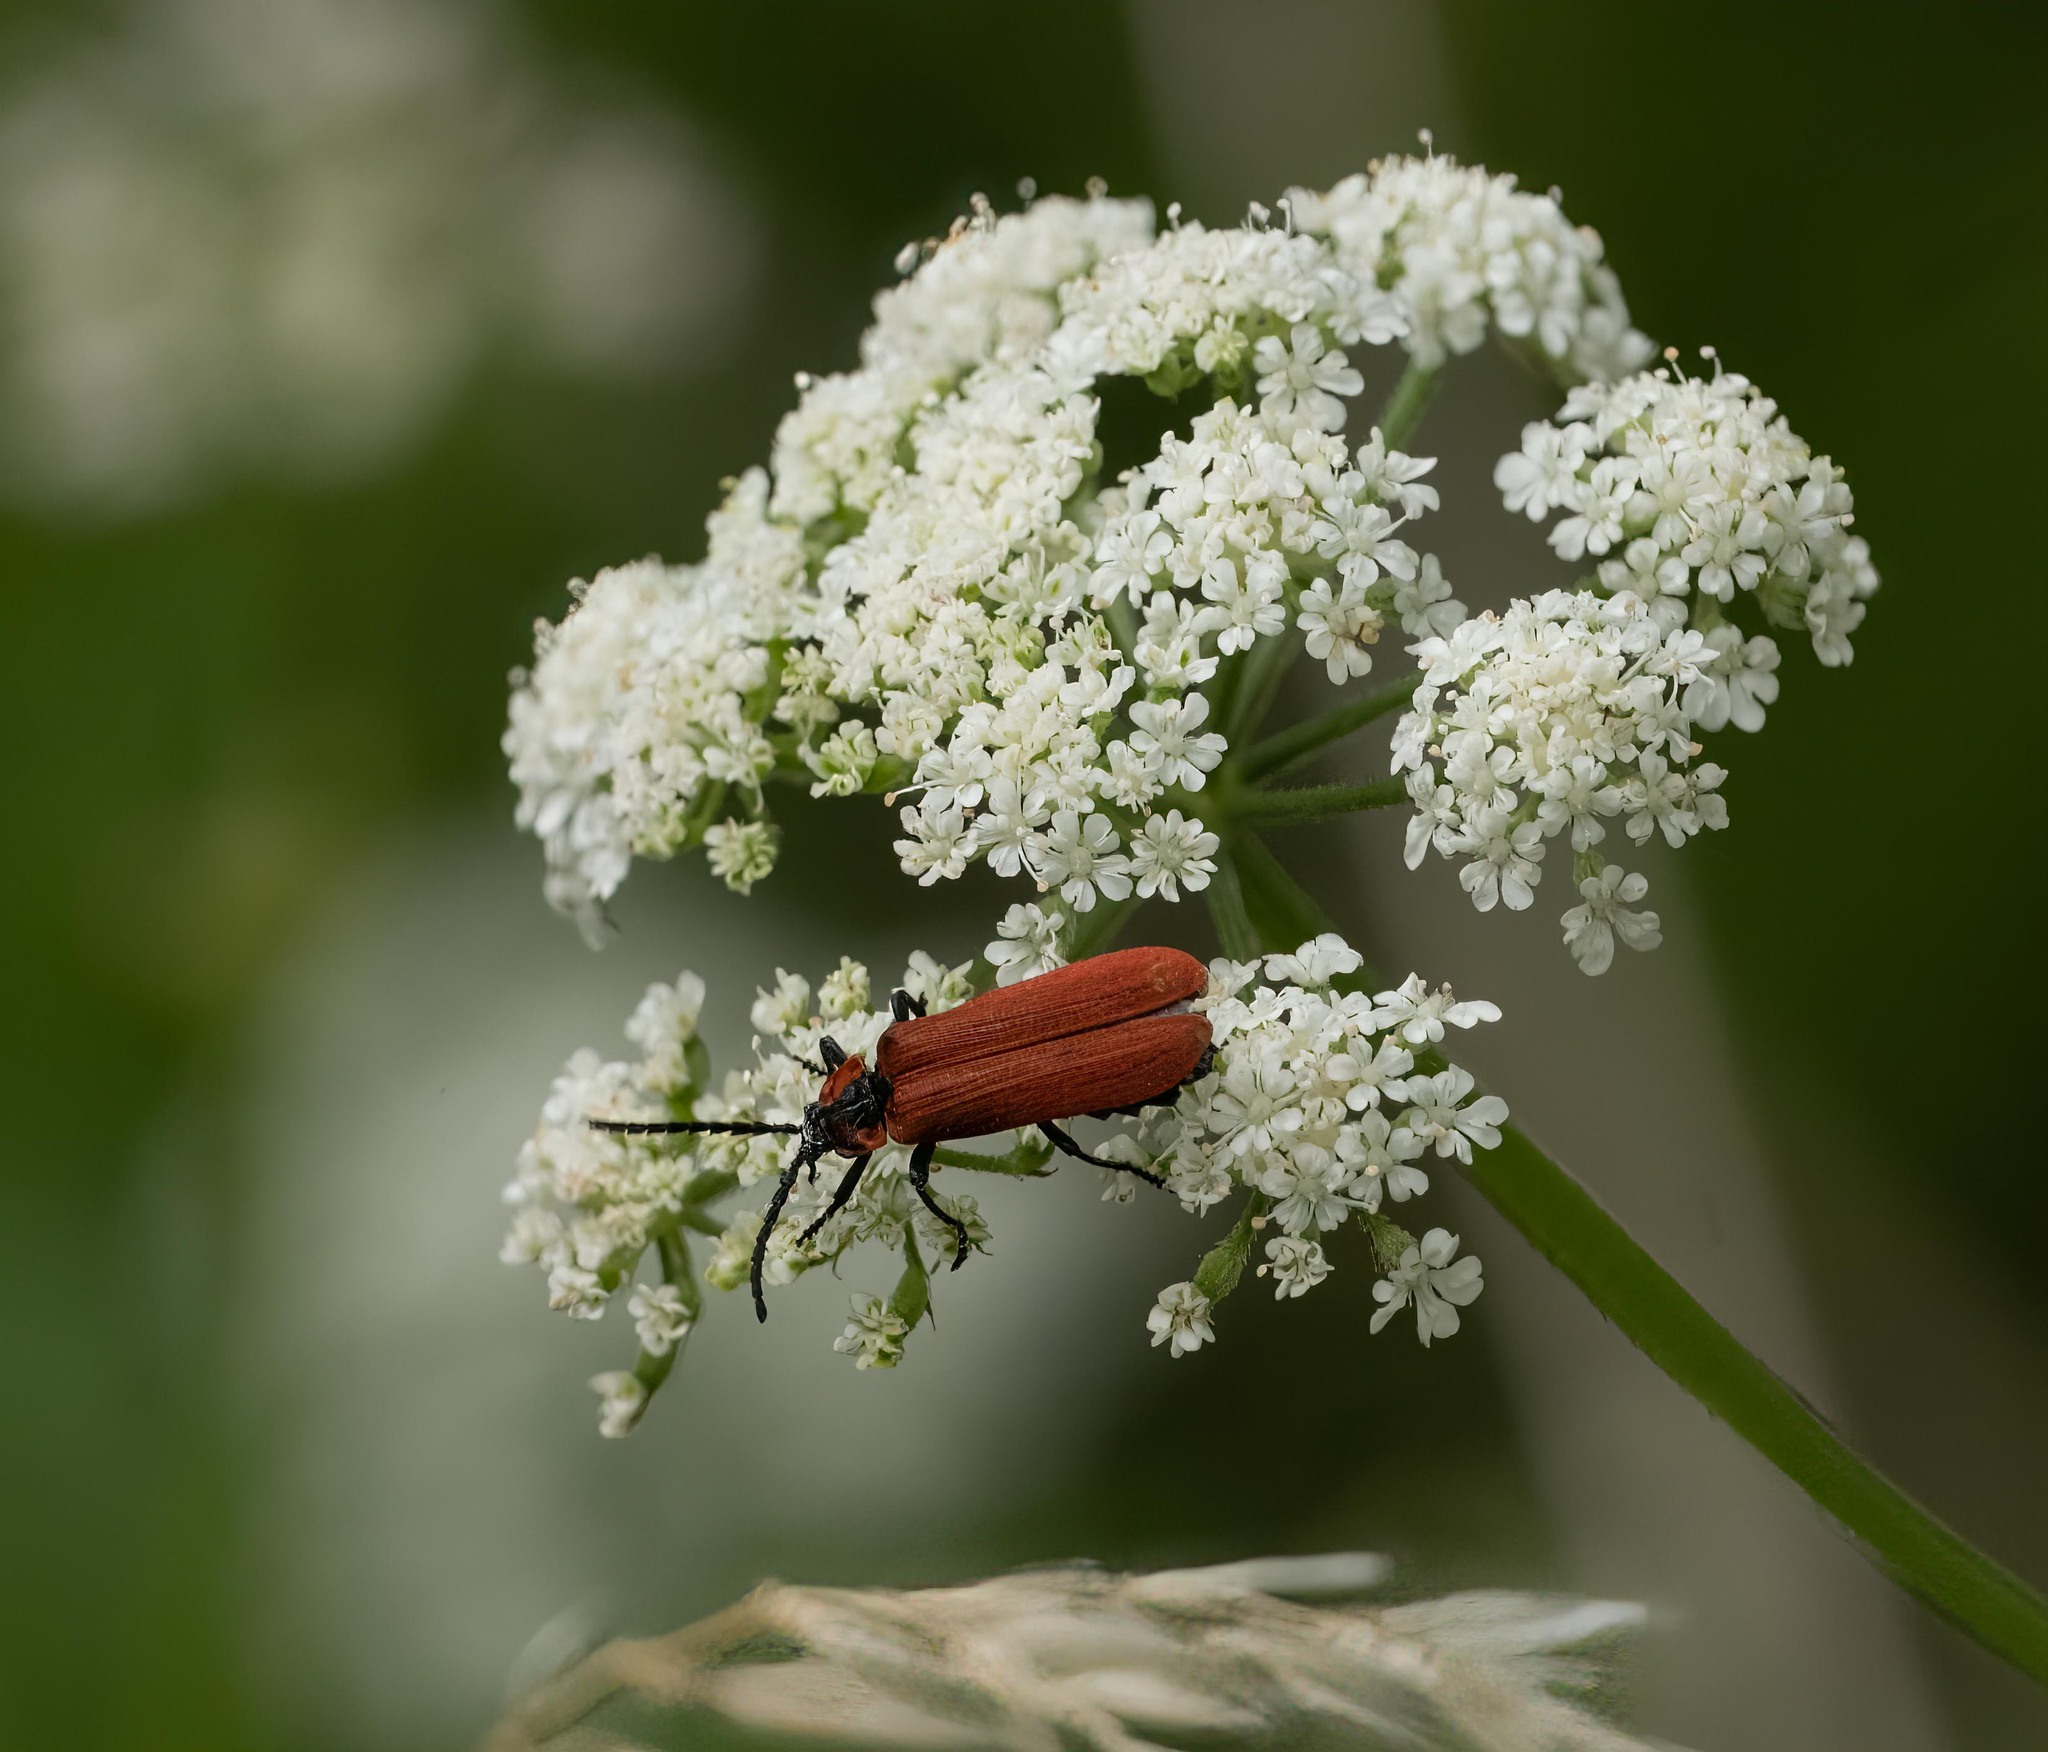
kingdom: Animalia
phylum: Arthropoda
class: Insecta
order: Coleoptera
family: Lycidae
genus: Lygistopterus
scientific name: Lygistopterus sanguineus
